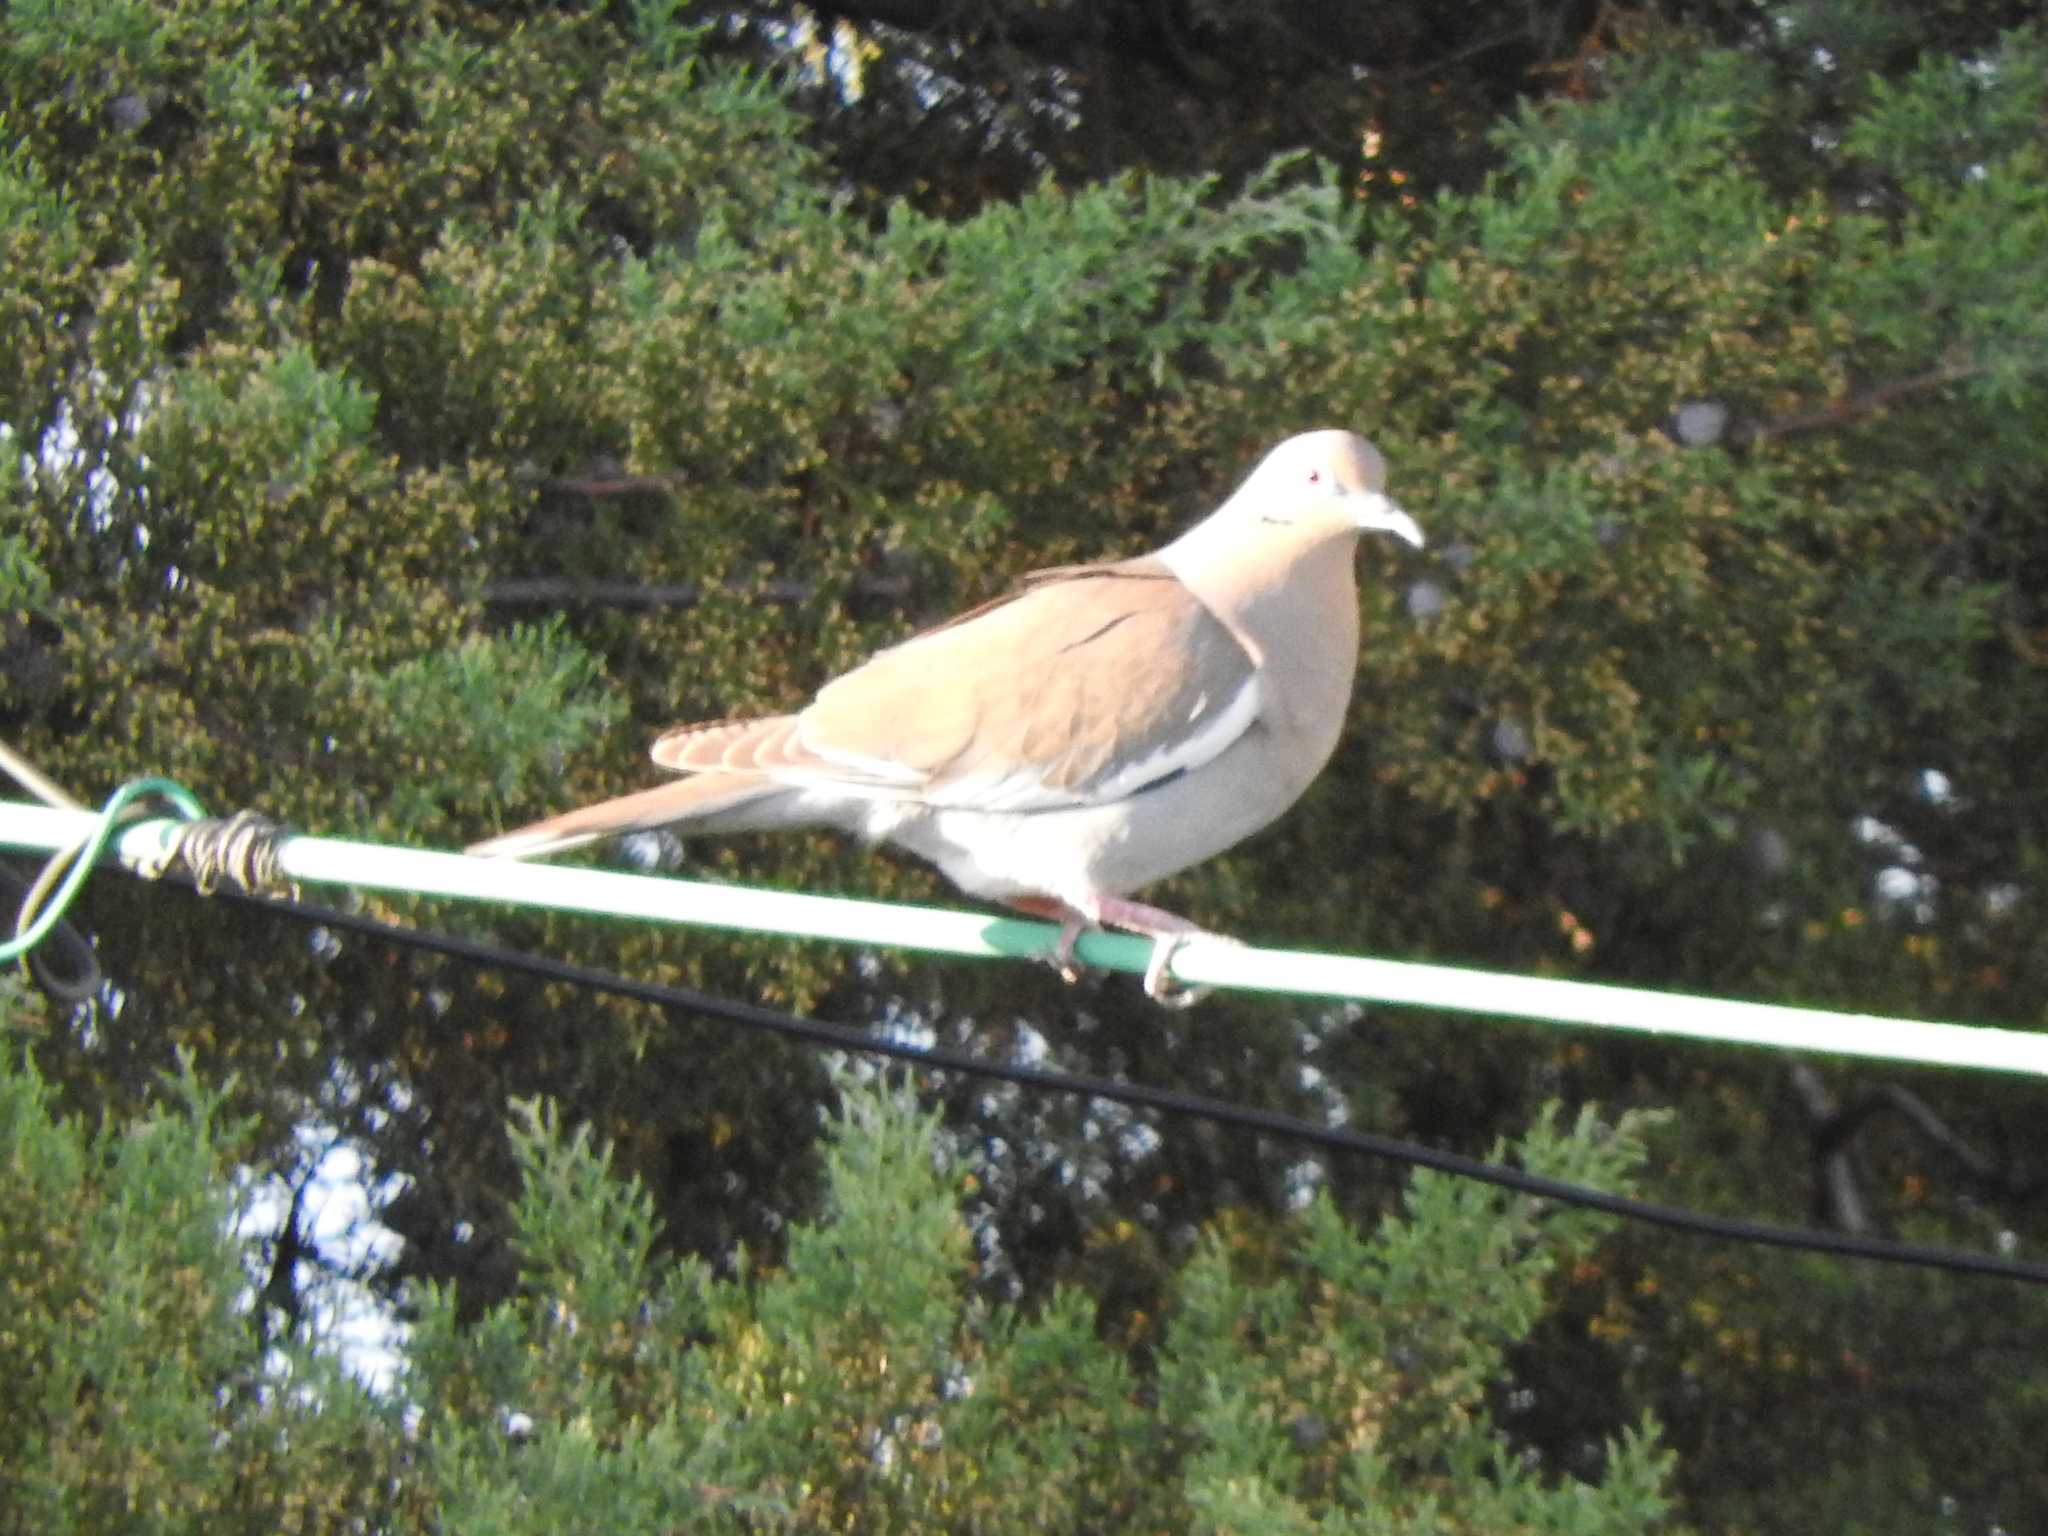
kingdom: Animalia
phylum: Chordata
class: Aves
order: Columbiformes
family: Columbidae
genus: Zenaida
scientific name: Zenaida asiatica
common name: White-winged dove
